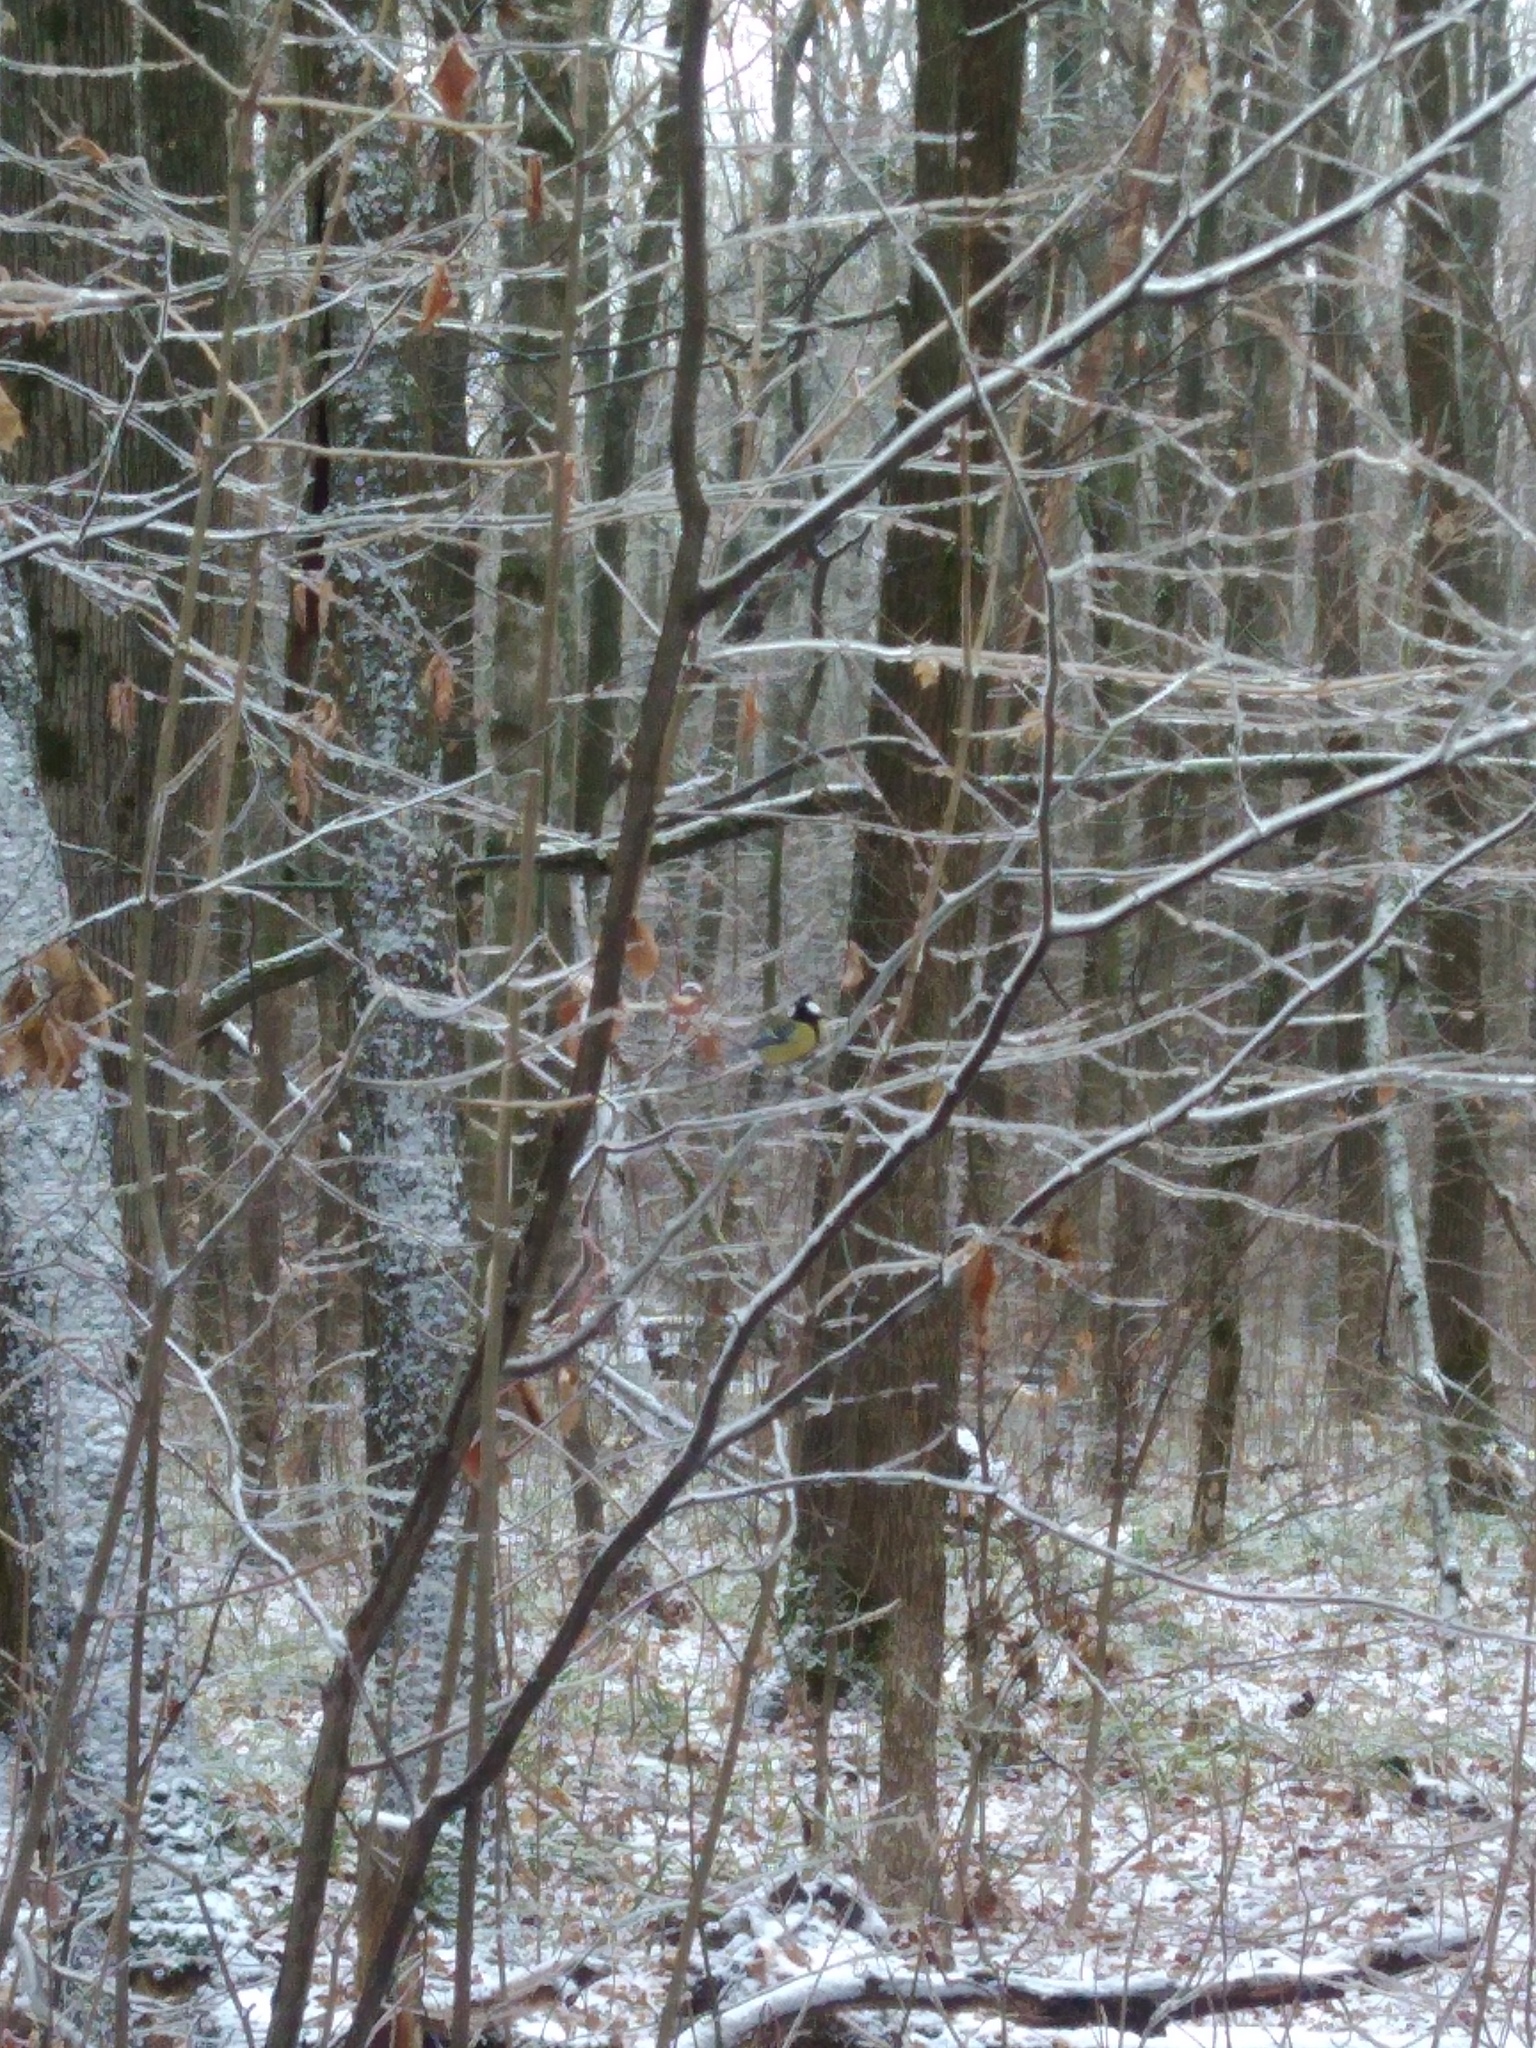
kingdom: Animalia
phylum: Chordata
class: Aves
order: Passeriformes
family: Paridae
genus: Parus
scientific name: Parus major
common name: Great tit
